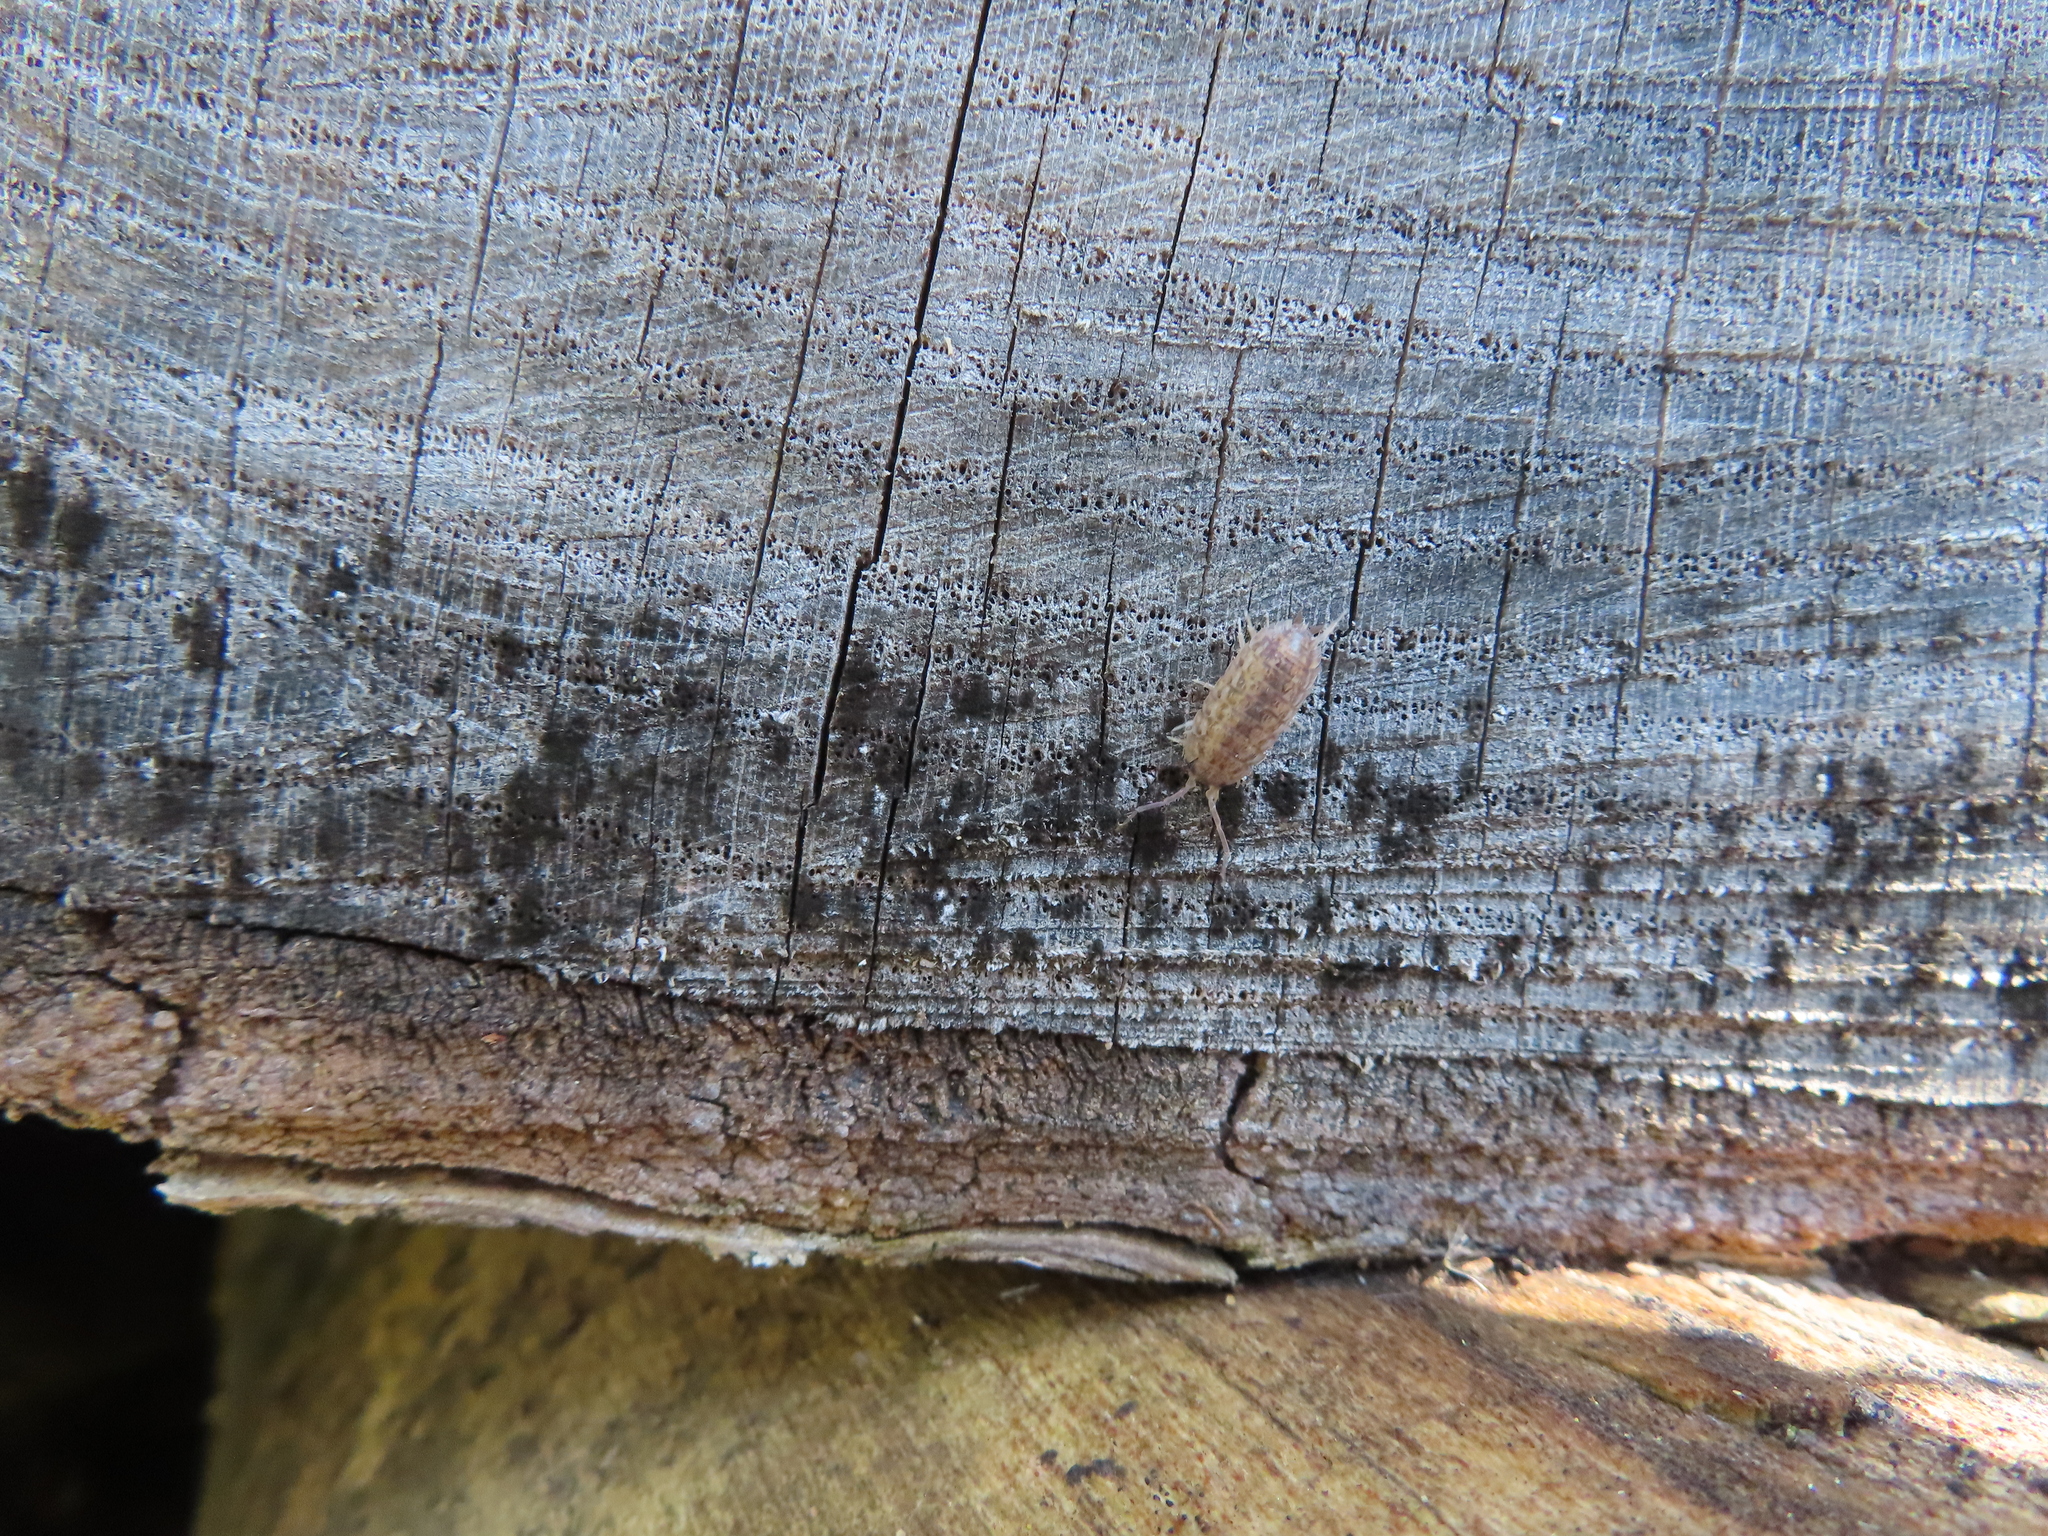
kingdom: Animalia
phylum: Arthropoda
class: Malacostraca
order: Isopoda
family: Trachelipodidae
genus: Trachelipus
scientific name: Trachelipus rathkii
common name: Isopod
